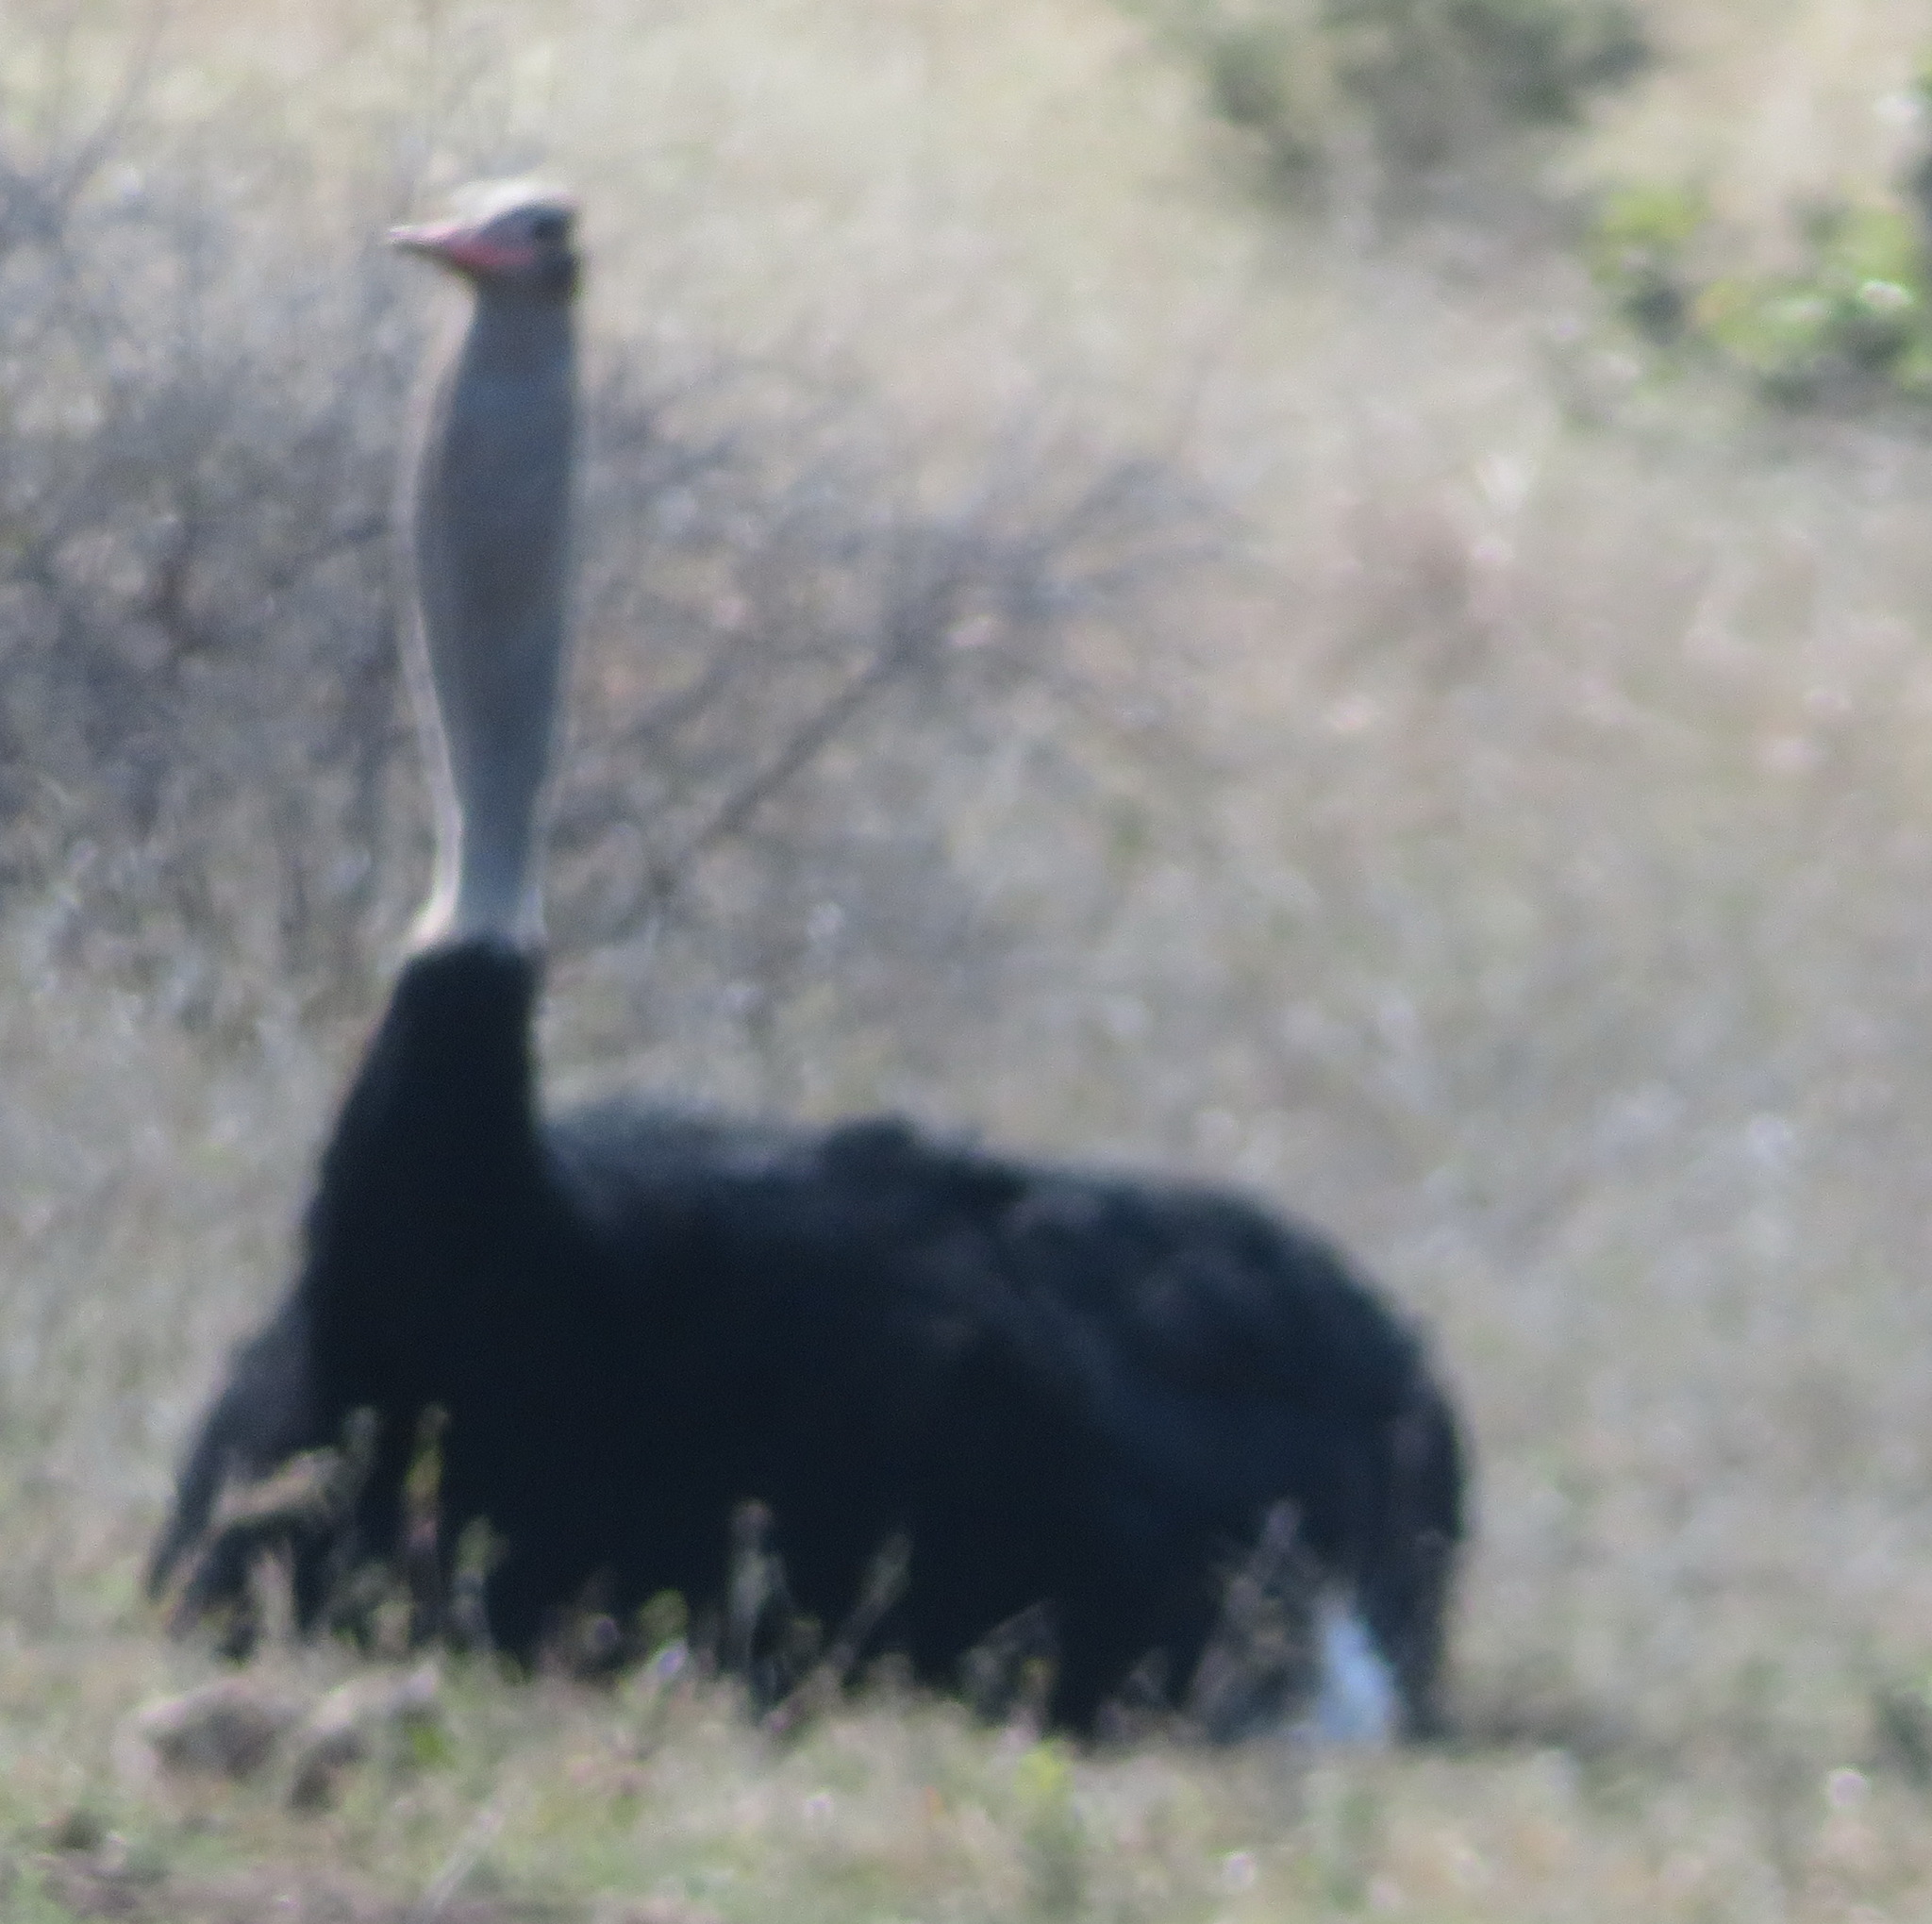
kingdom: Animalia
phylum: Chordata
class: Aves
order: Struthioniformes
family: Struthionidae
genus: Struthio
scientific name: Struthio camelus
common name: Common ostrich
